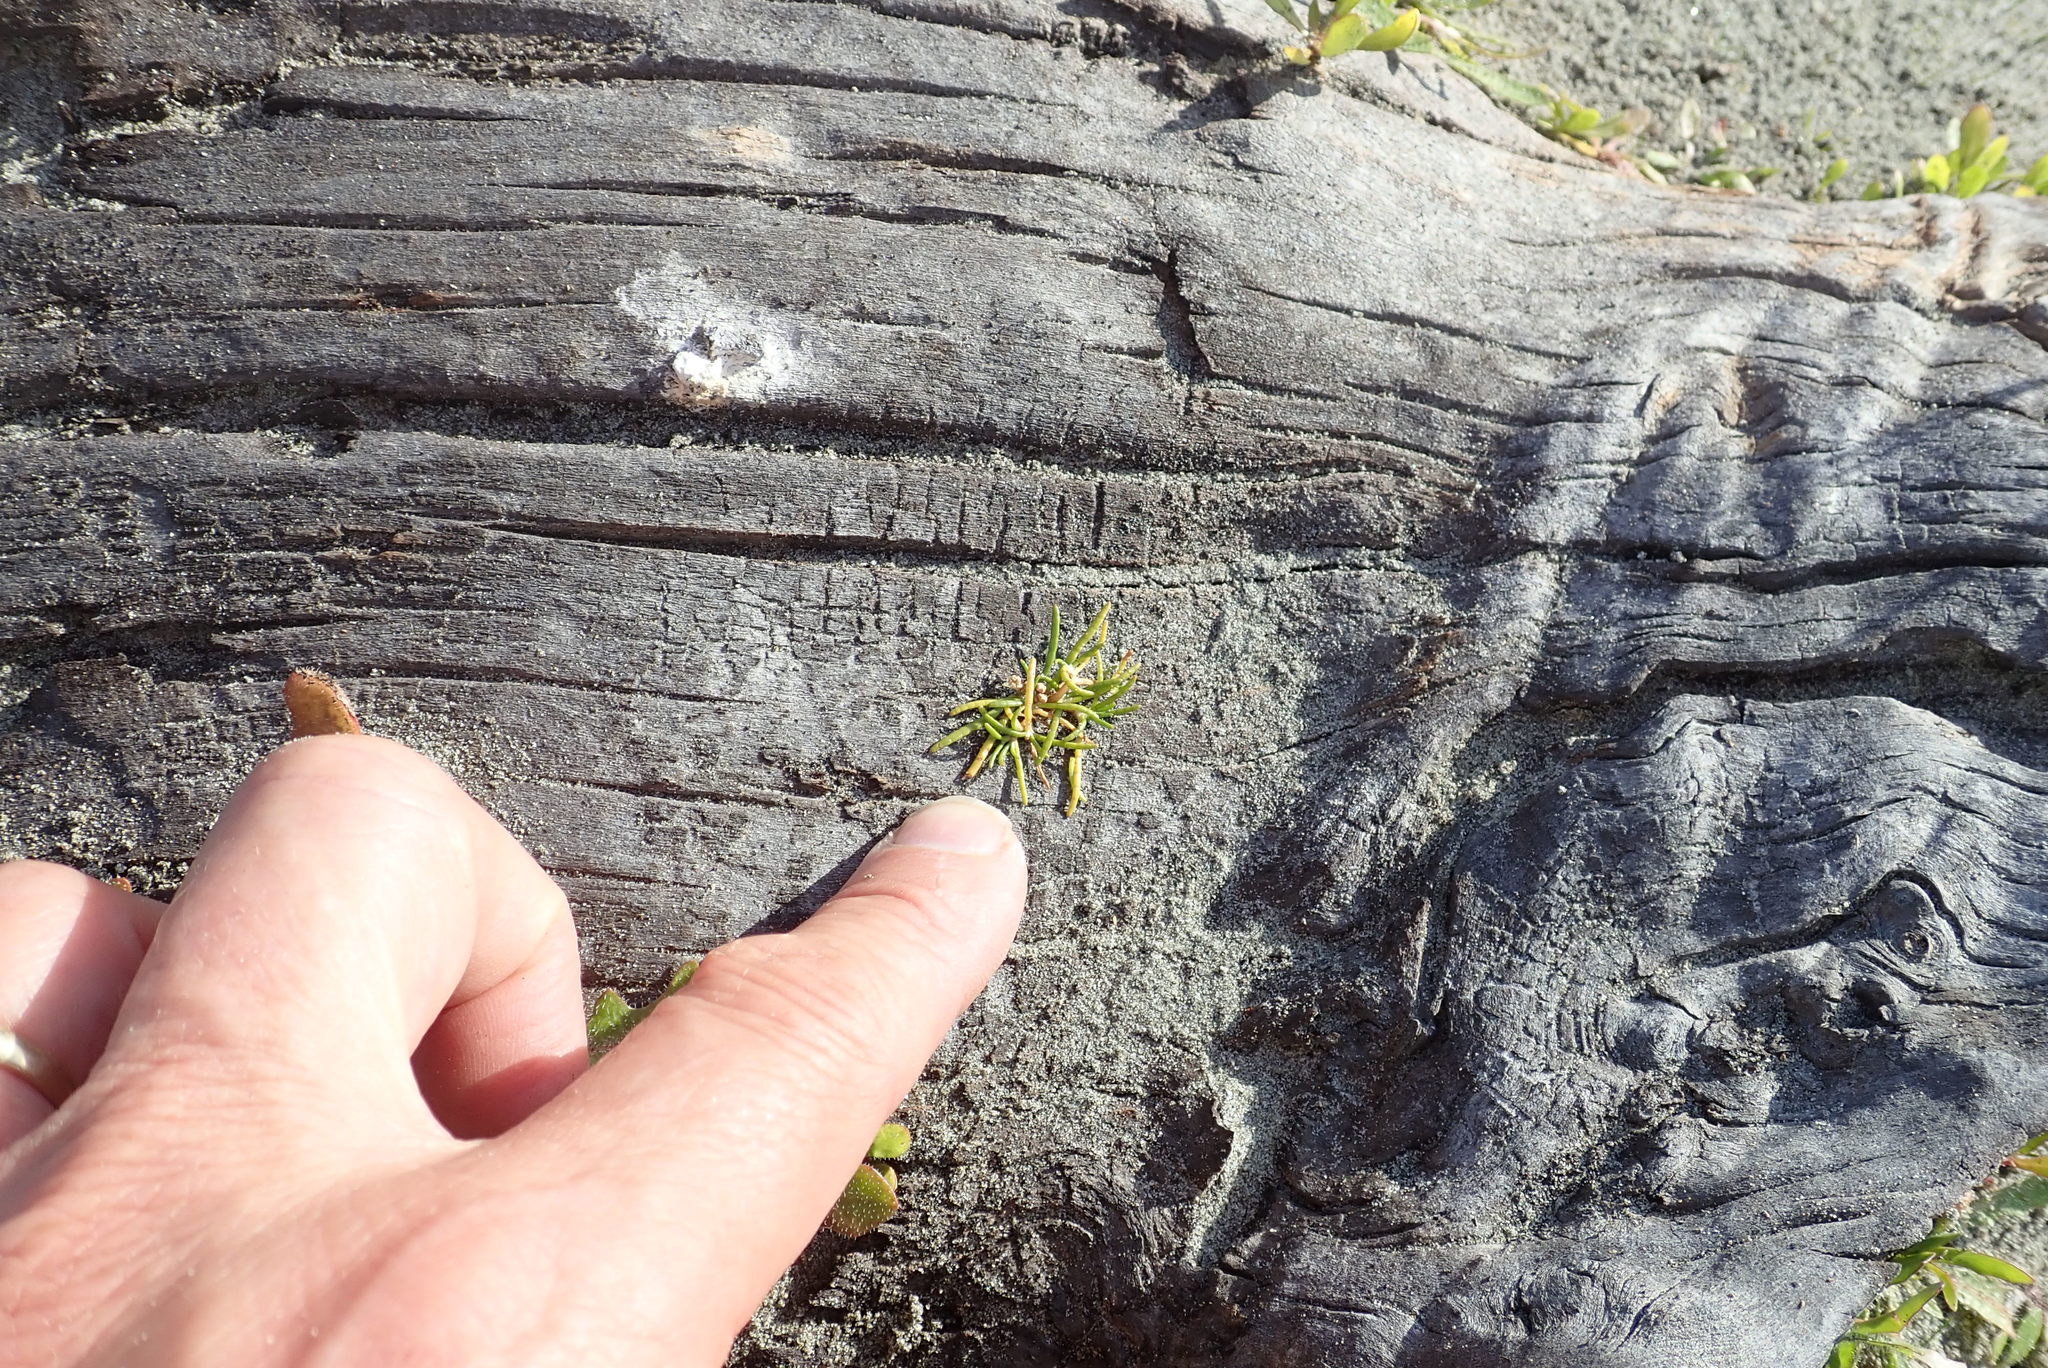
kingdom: Plantae
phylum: Tracheophyta
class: Magnoliopsida
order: Apiales
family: Apiaceae
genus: Lilaeopsis
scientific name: Lilaeopsis novae-zelandiae
